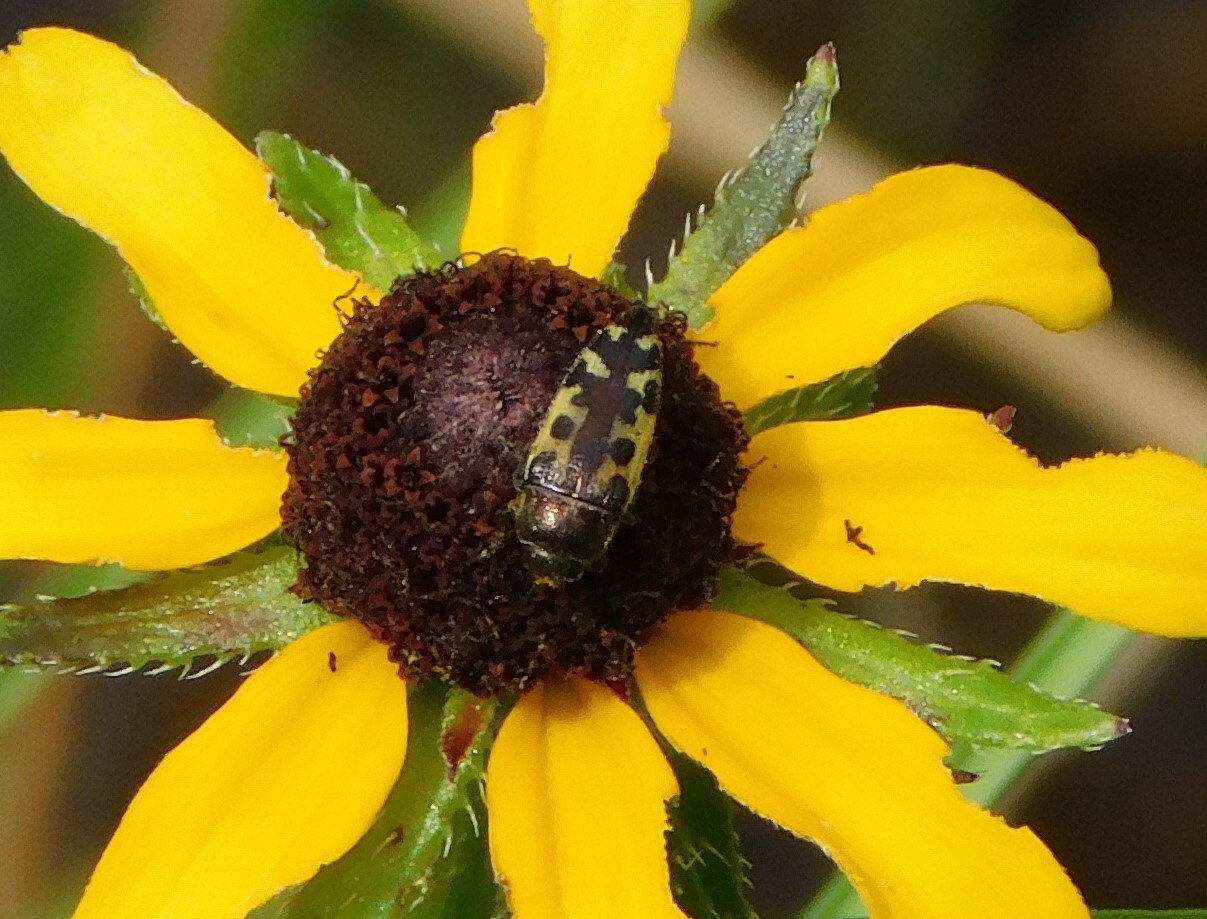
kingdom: Animalia
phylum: Arthropoda
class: Insecta
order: Coleoptera
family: Buprestidae
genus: Acmaeodera
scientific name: Acmaeodera pulchella
